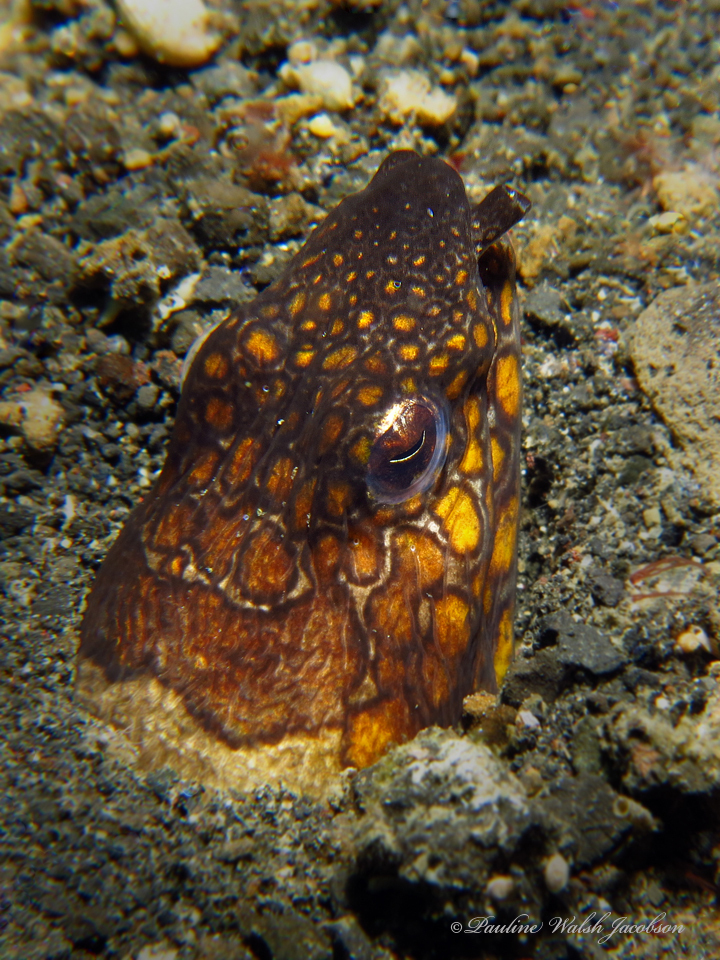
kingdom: Animalia
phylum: Chordata
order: Anguilliformes
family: Ophichthidae
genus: Ophichthus
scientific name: Ophichthus bonaparti
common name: Napoleon snake eel
